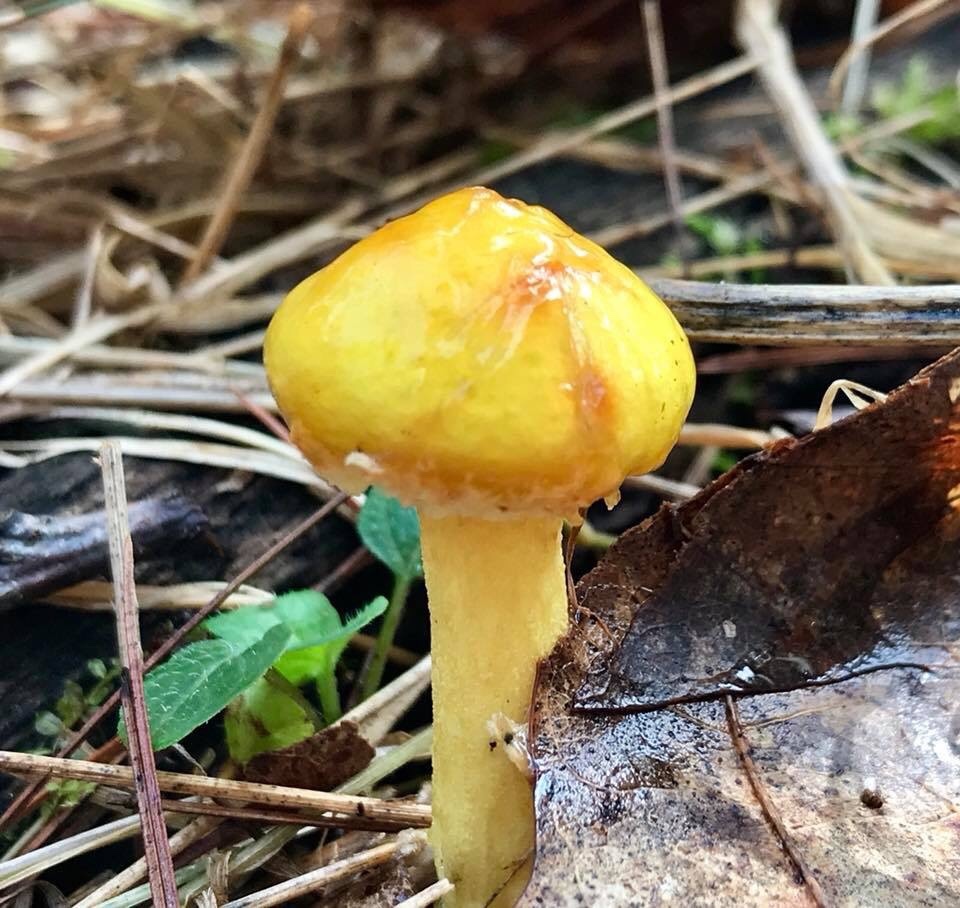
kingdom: Fungi
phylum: Basidiomycota
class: Agaricomycetes
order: Boletales
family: Suillaceae
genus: Suillus
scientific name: Suillus americanus
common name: Chicken fat mushroom
